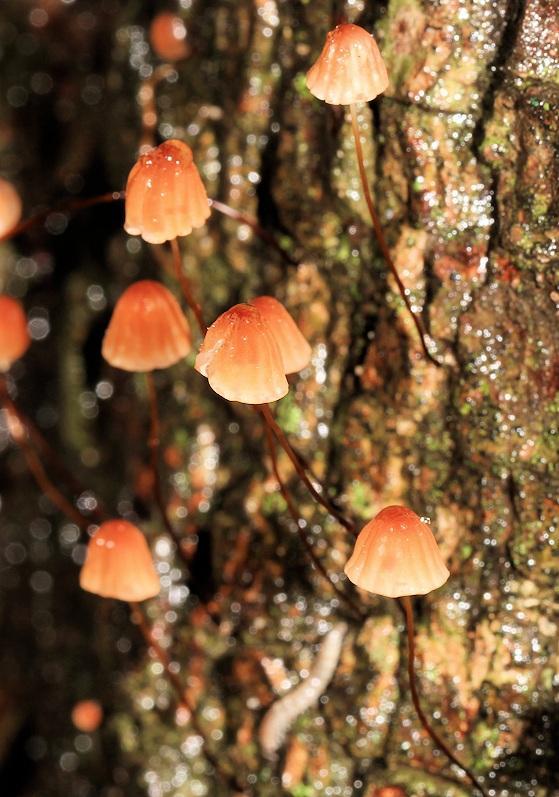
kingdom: Fungi
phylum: Basidiomycota
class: Agaricomycetes
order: Agaricales
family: Marasmiaceae
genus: Marasmius
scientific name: Marasmius siccus
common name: Orange pinwheel
